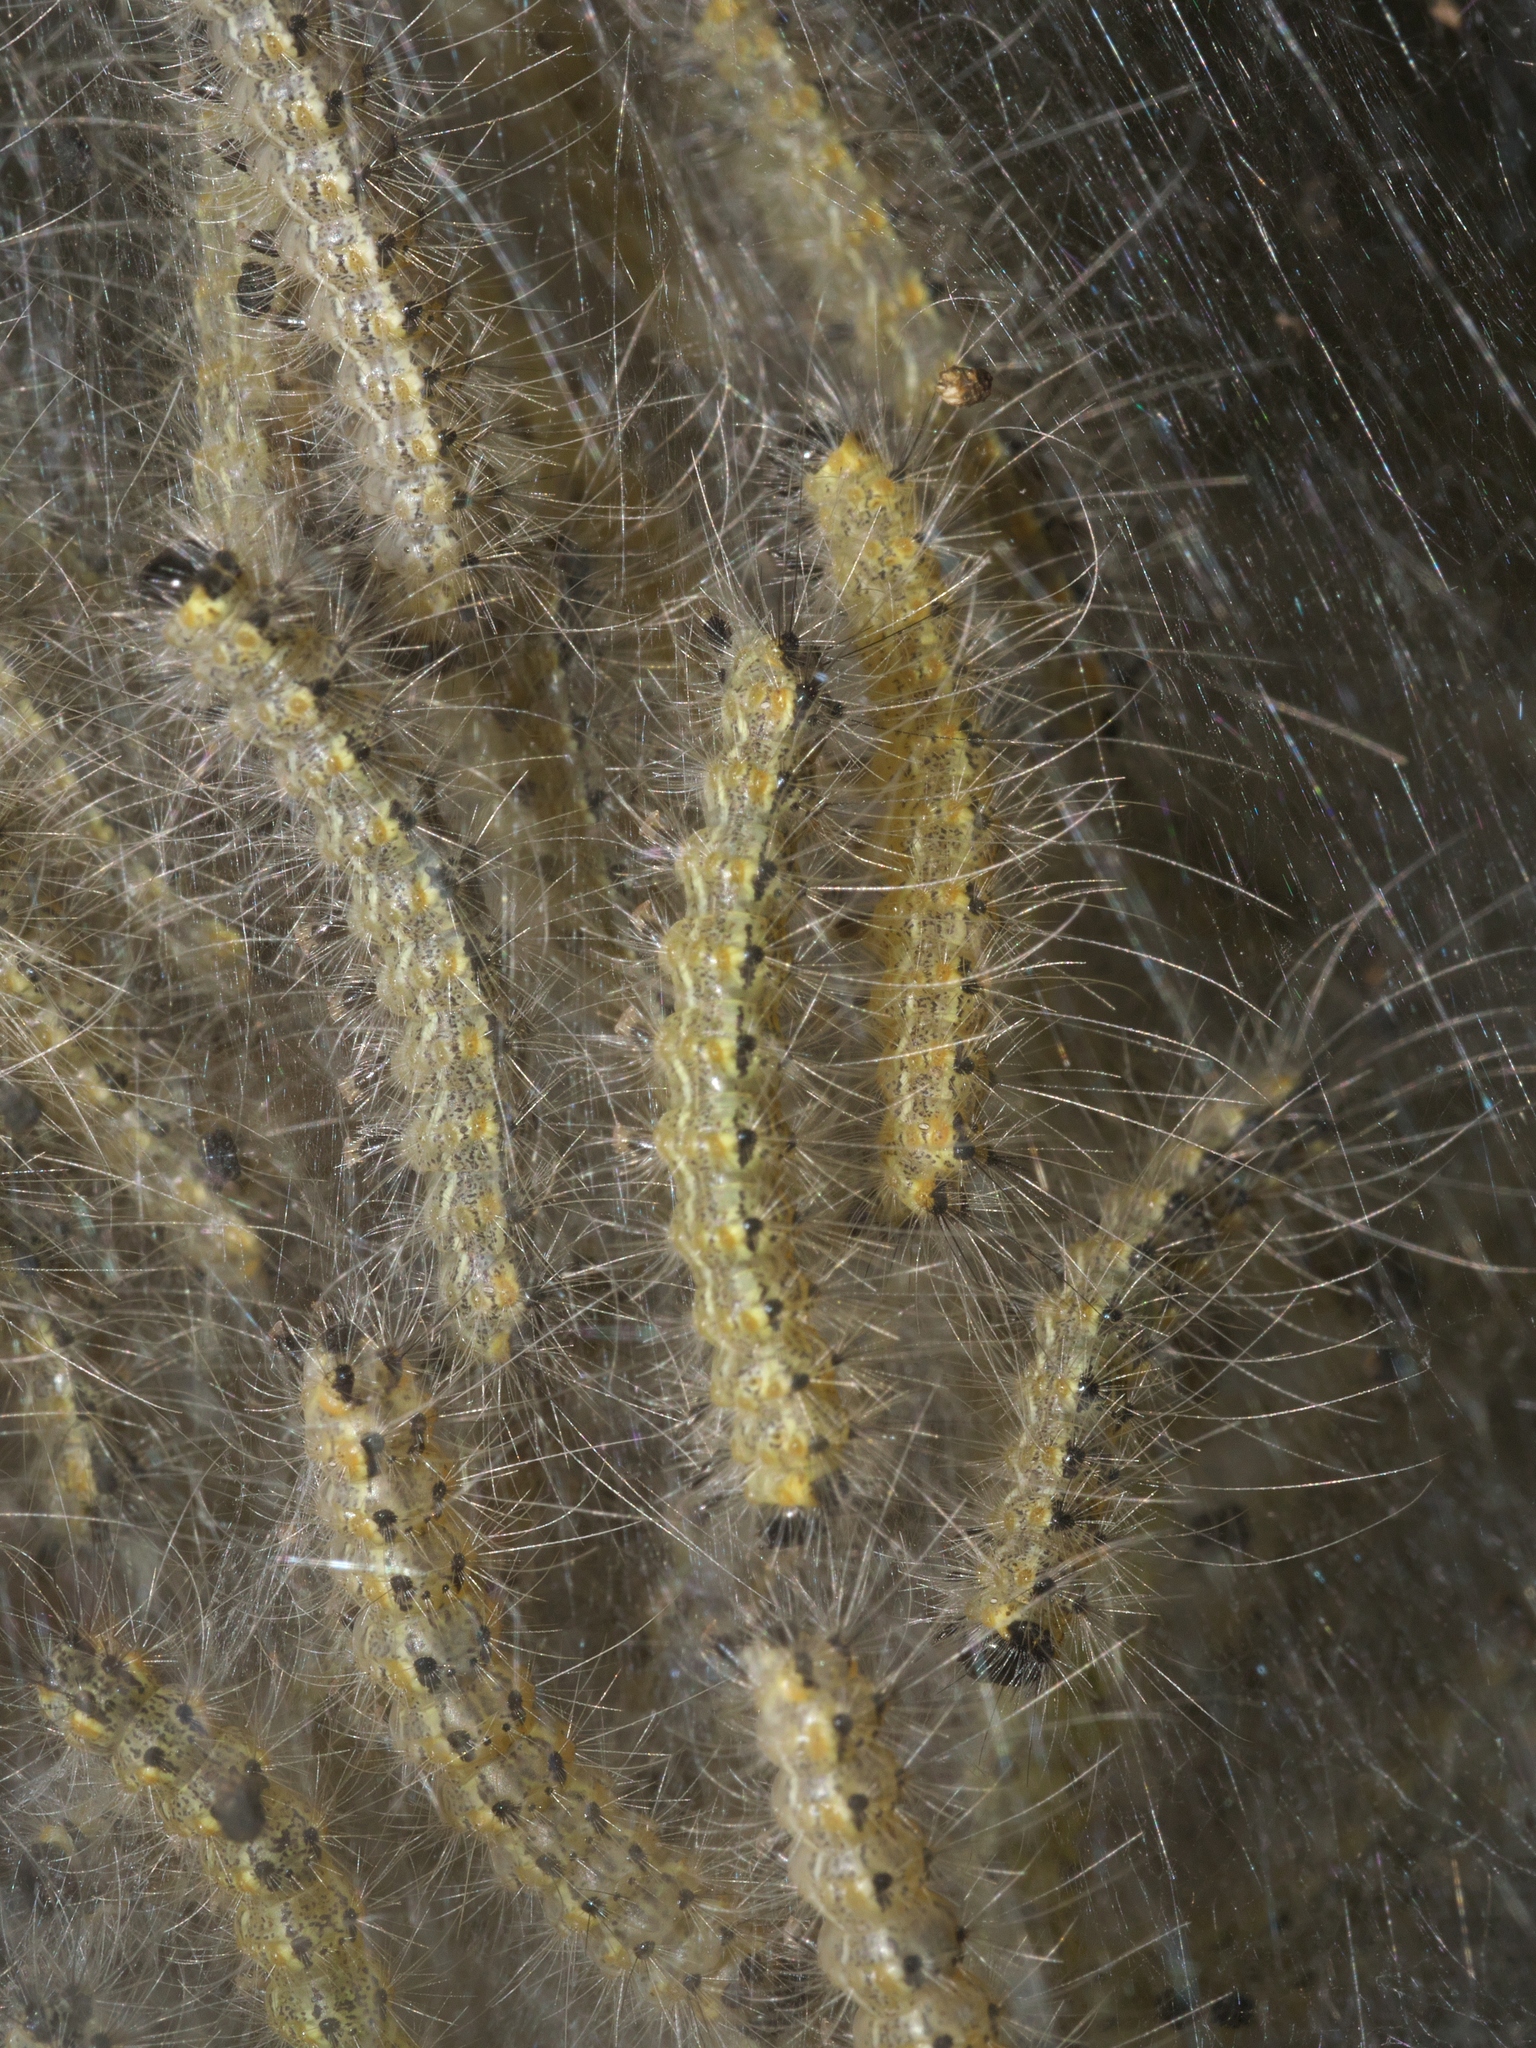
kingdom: Animalia
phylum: Arthropoda
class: Insecta
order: Lepidoptera
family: Erebidae
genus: Hyphantria
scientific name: Hyphantria cunea
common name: American white moth
